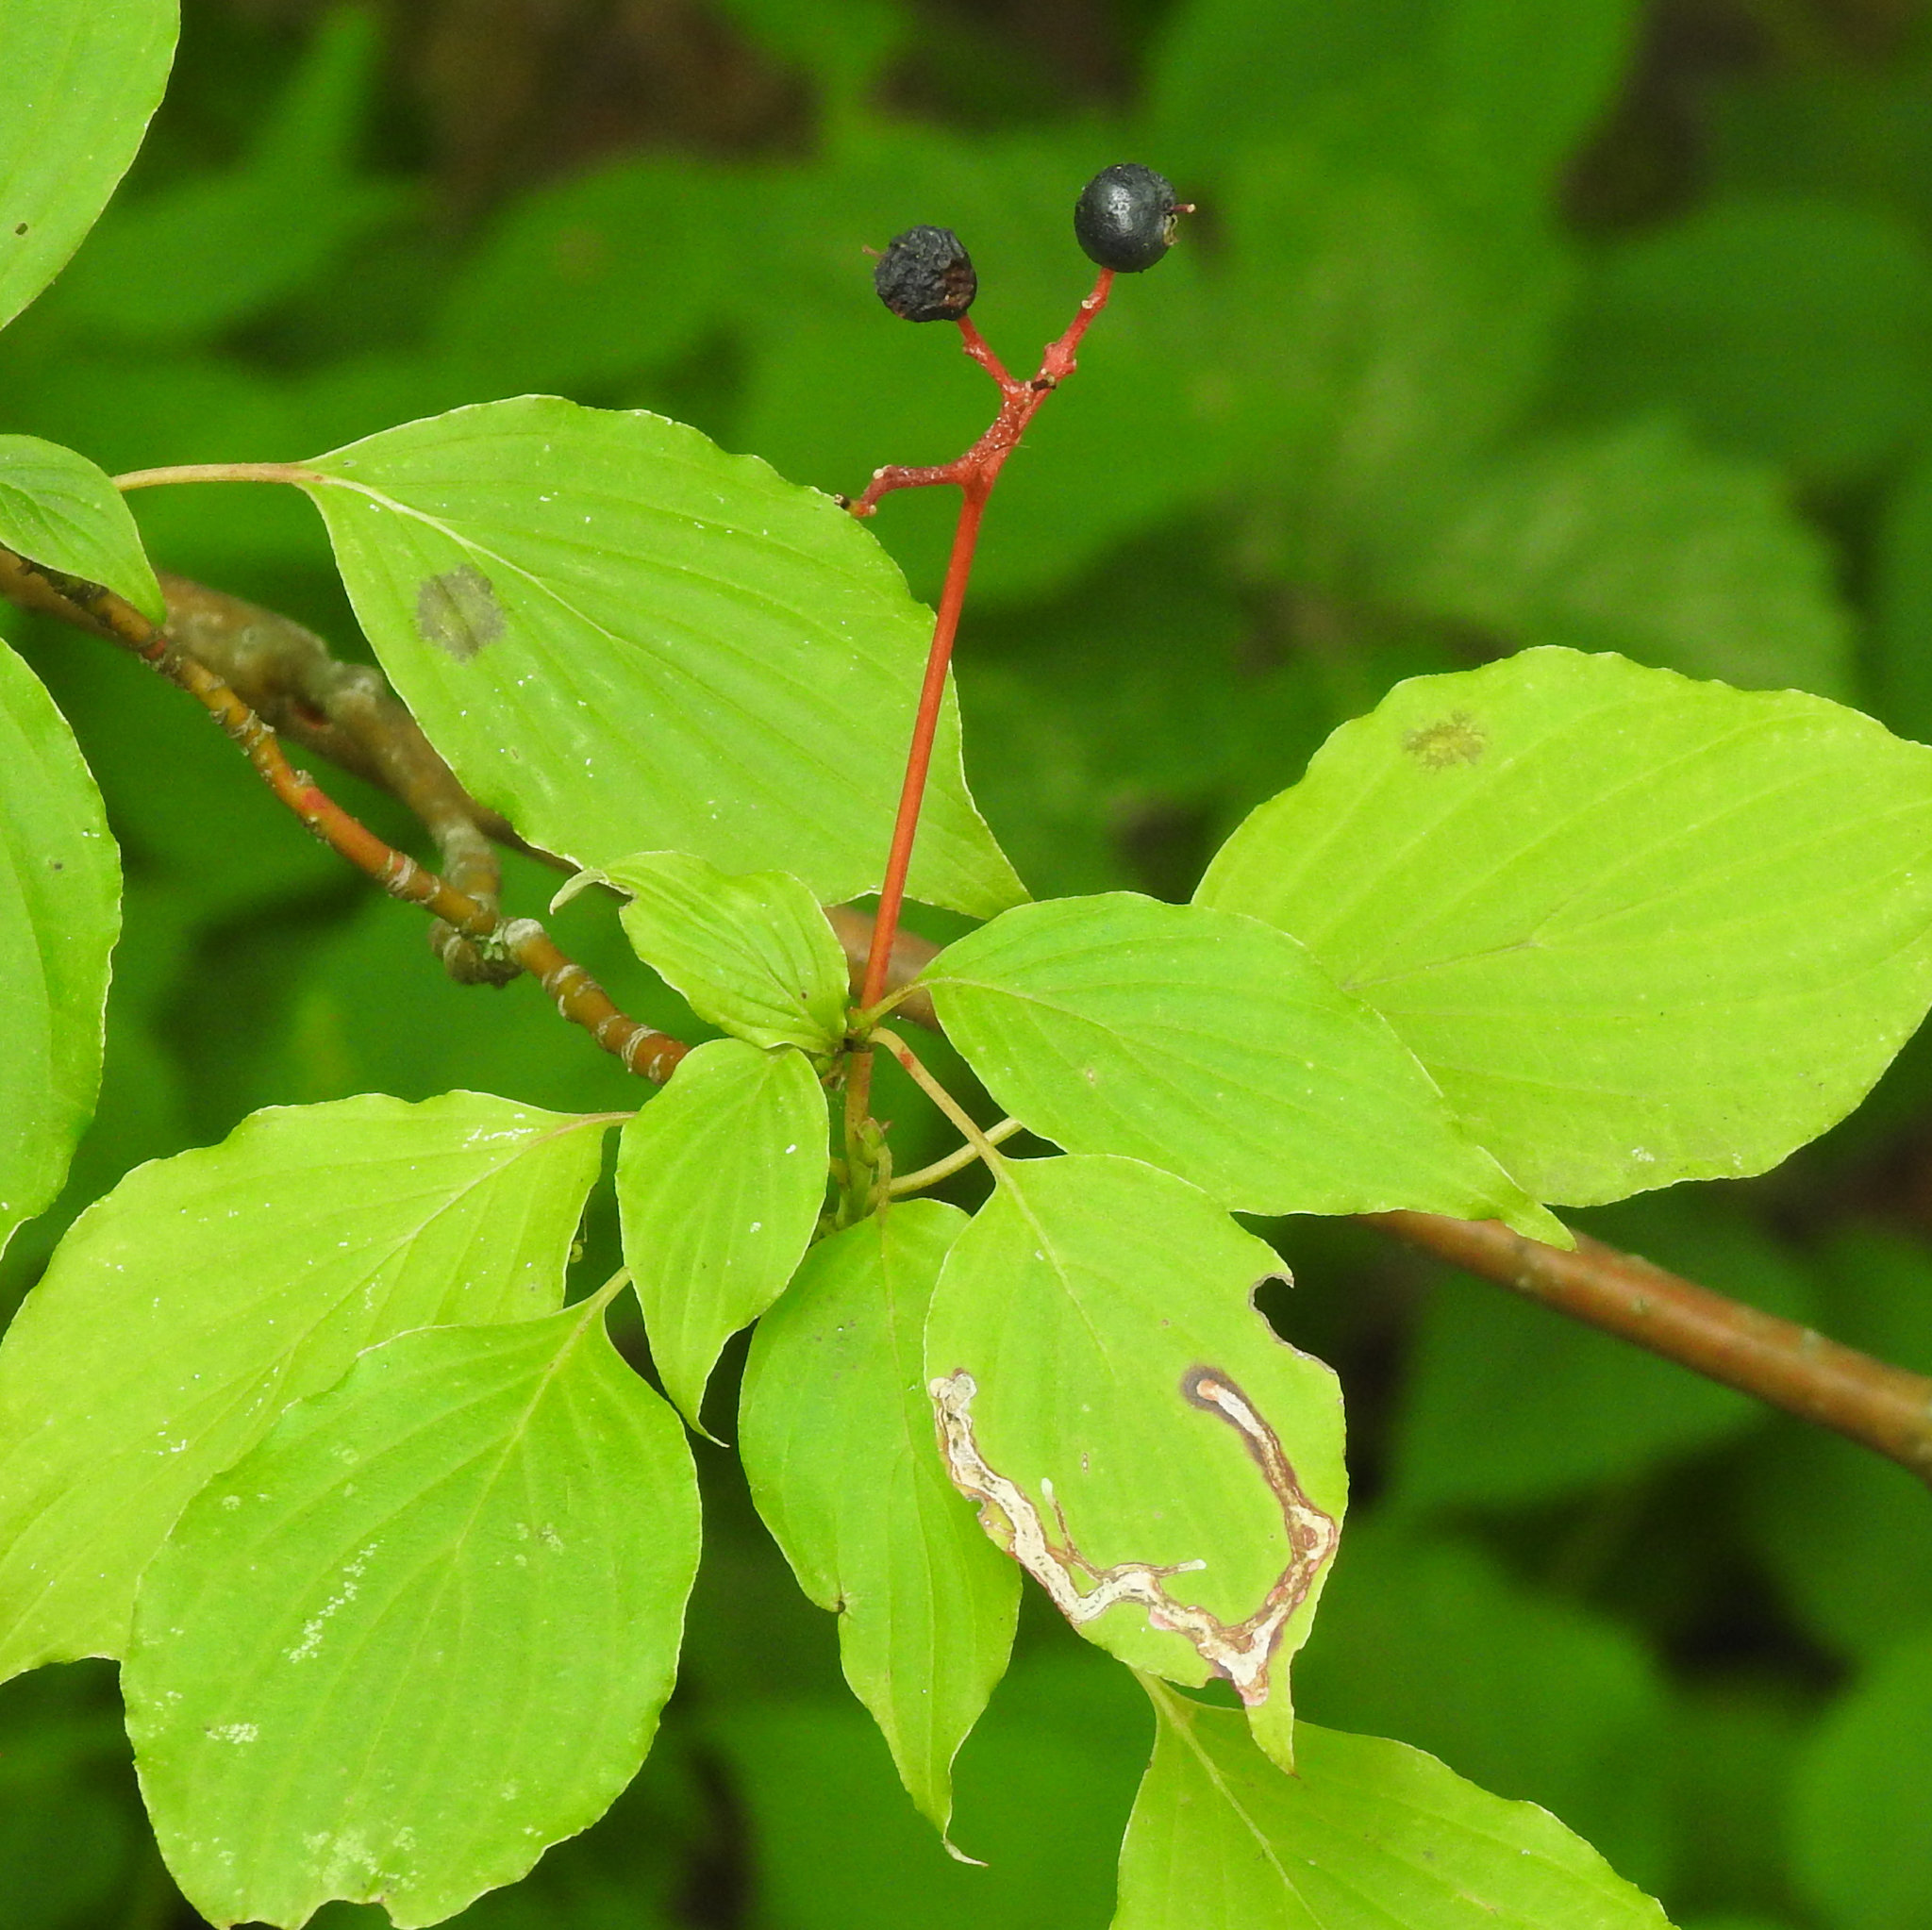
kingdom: Animalia
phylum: Arthropoda
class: Insecta
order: Diptera
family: Agromyzidae
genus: Phytomyza
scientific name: Phytomyza agromyzina
